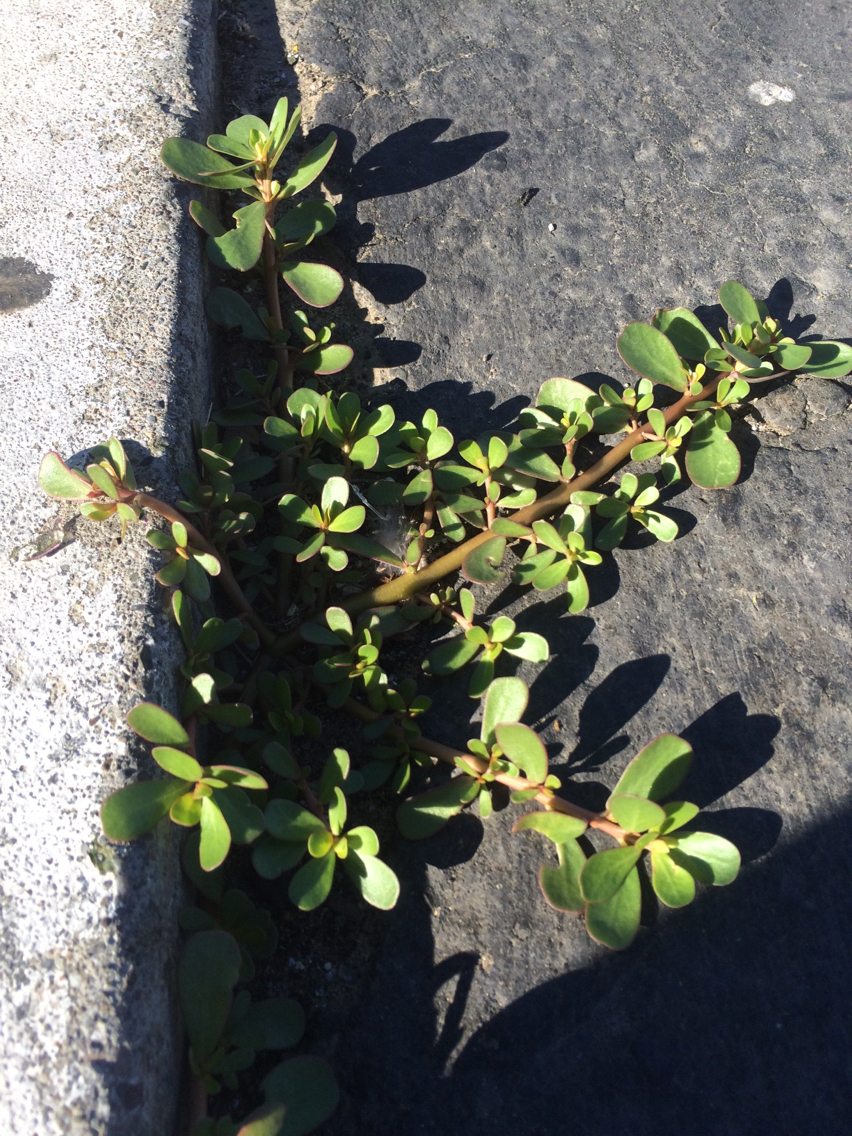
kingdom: Plantae
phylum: Tracheophyta
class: Magnoliopsida
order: Caryophyllales
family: Portulacaceae
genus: Portulaca
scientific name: Portulaca oleracea
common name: Common purslane
